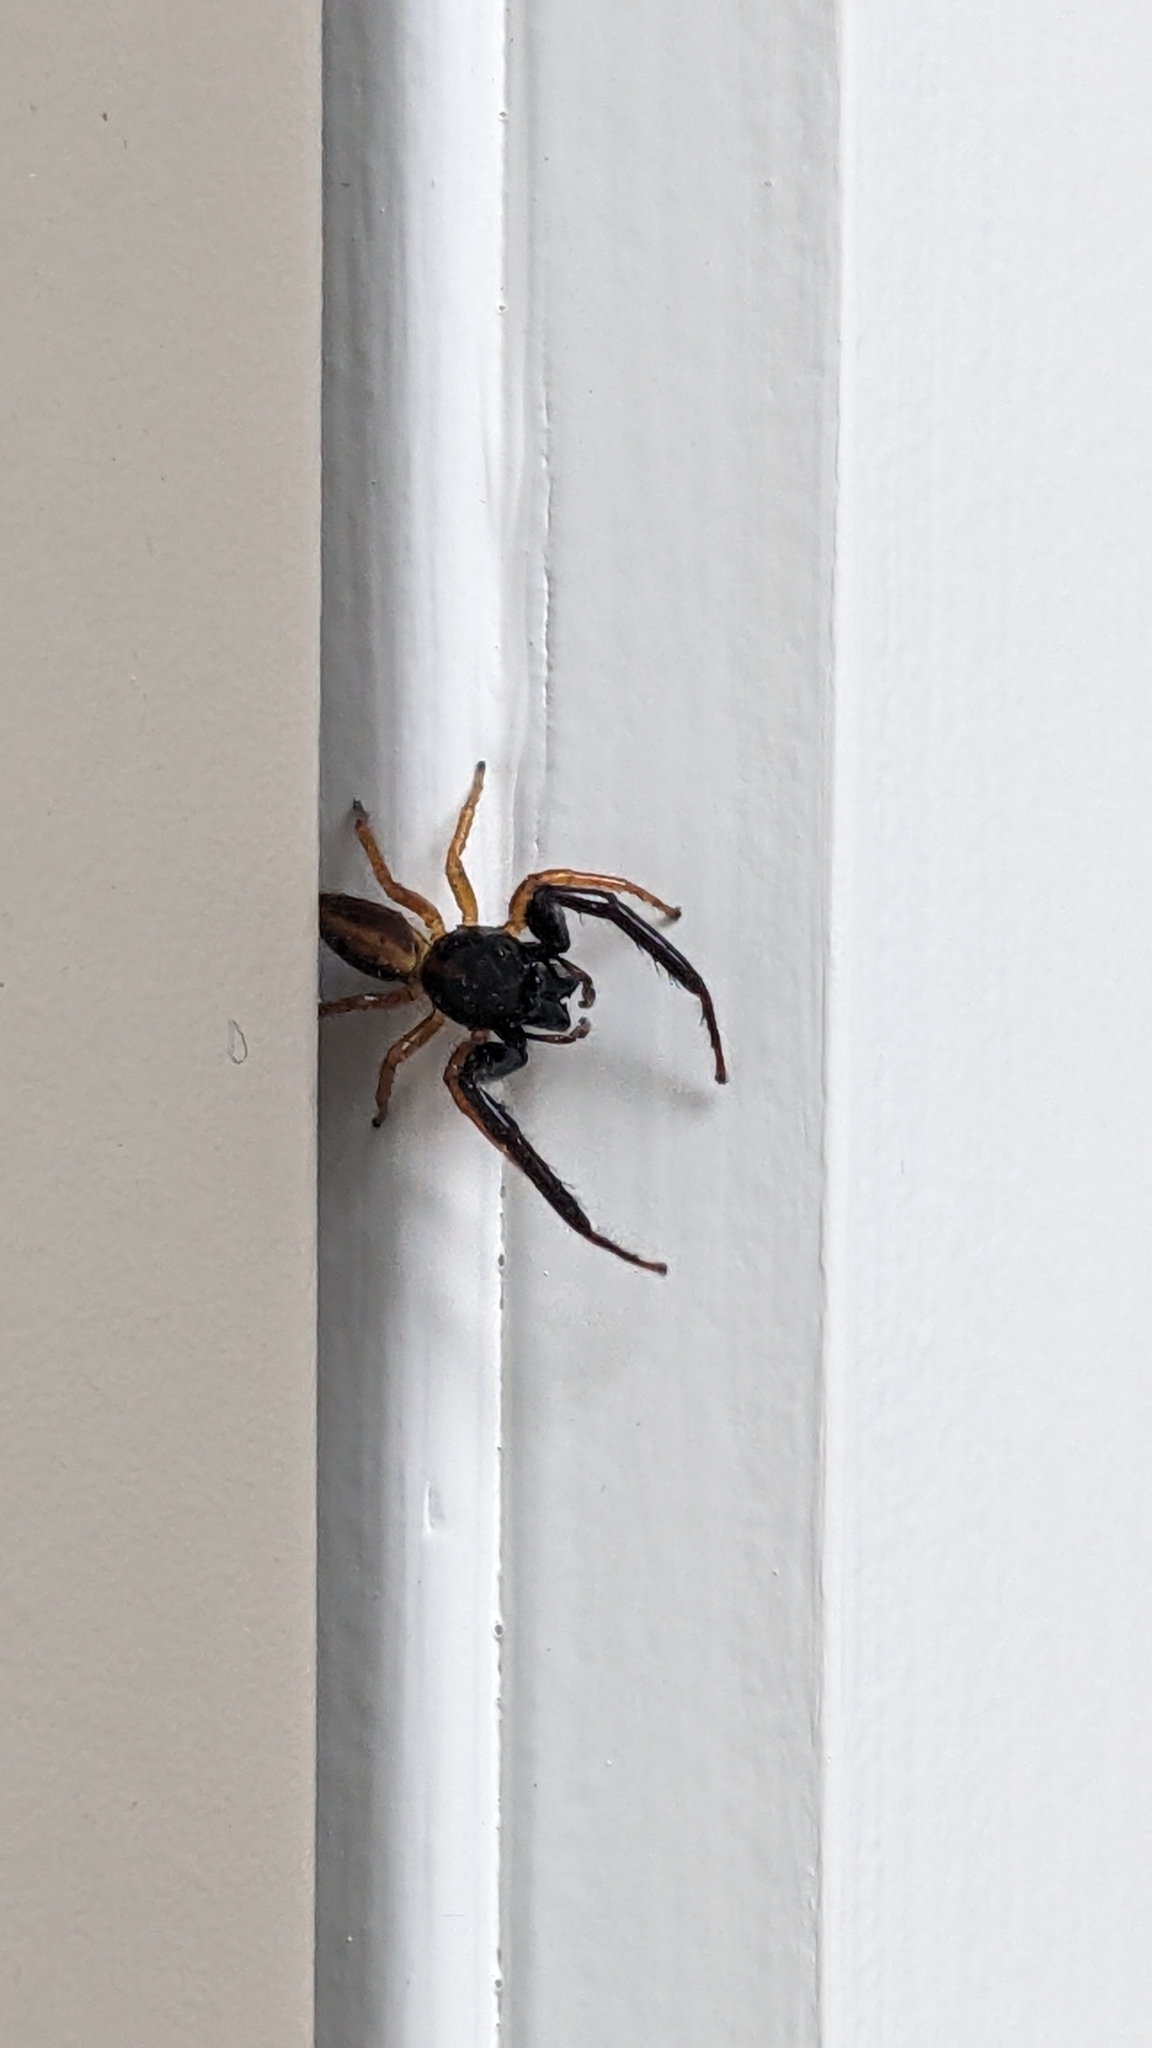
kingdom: Animalia
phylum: Arthropoda
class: Arachnida
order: Araneae
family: Salticidae
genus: Trite
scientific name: Trite planiceps
